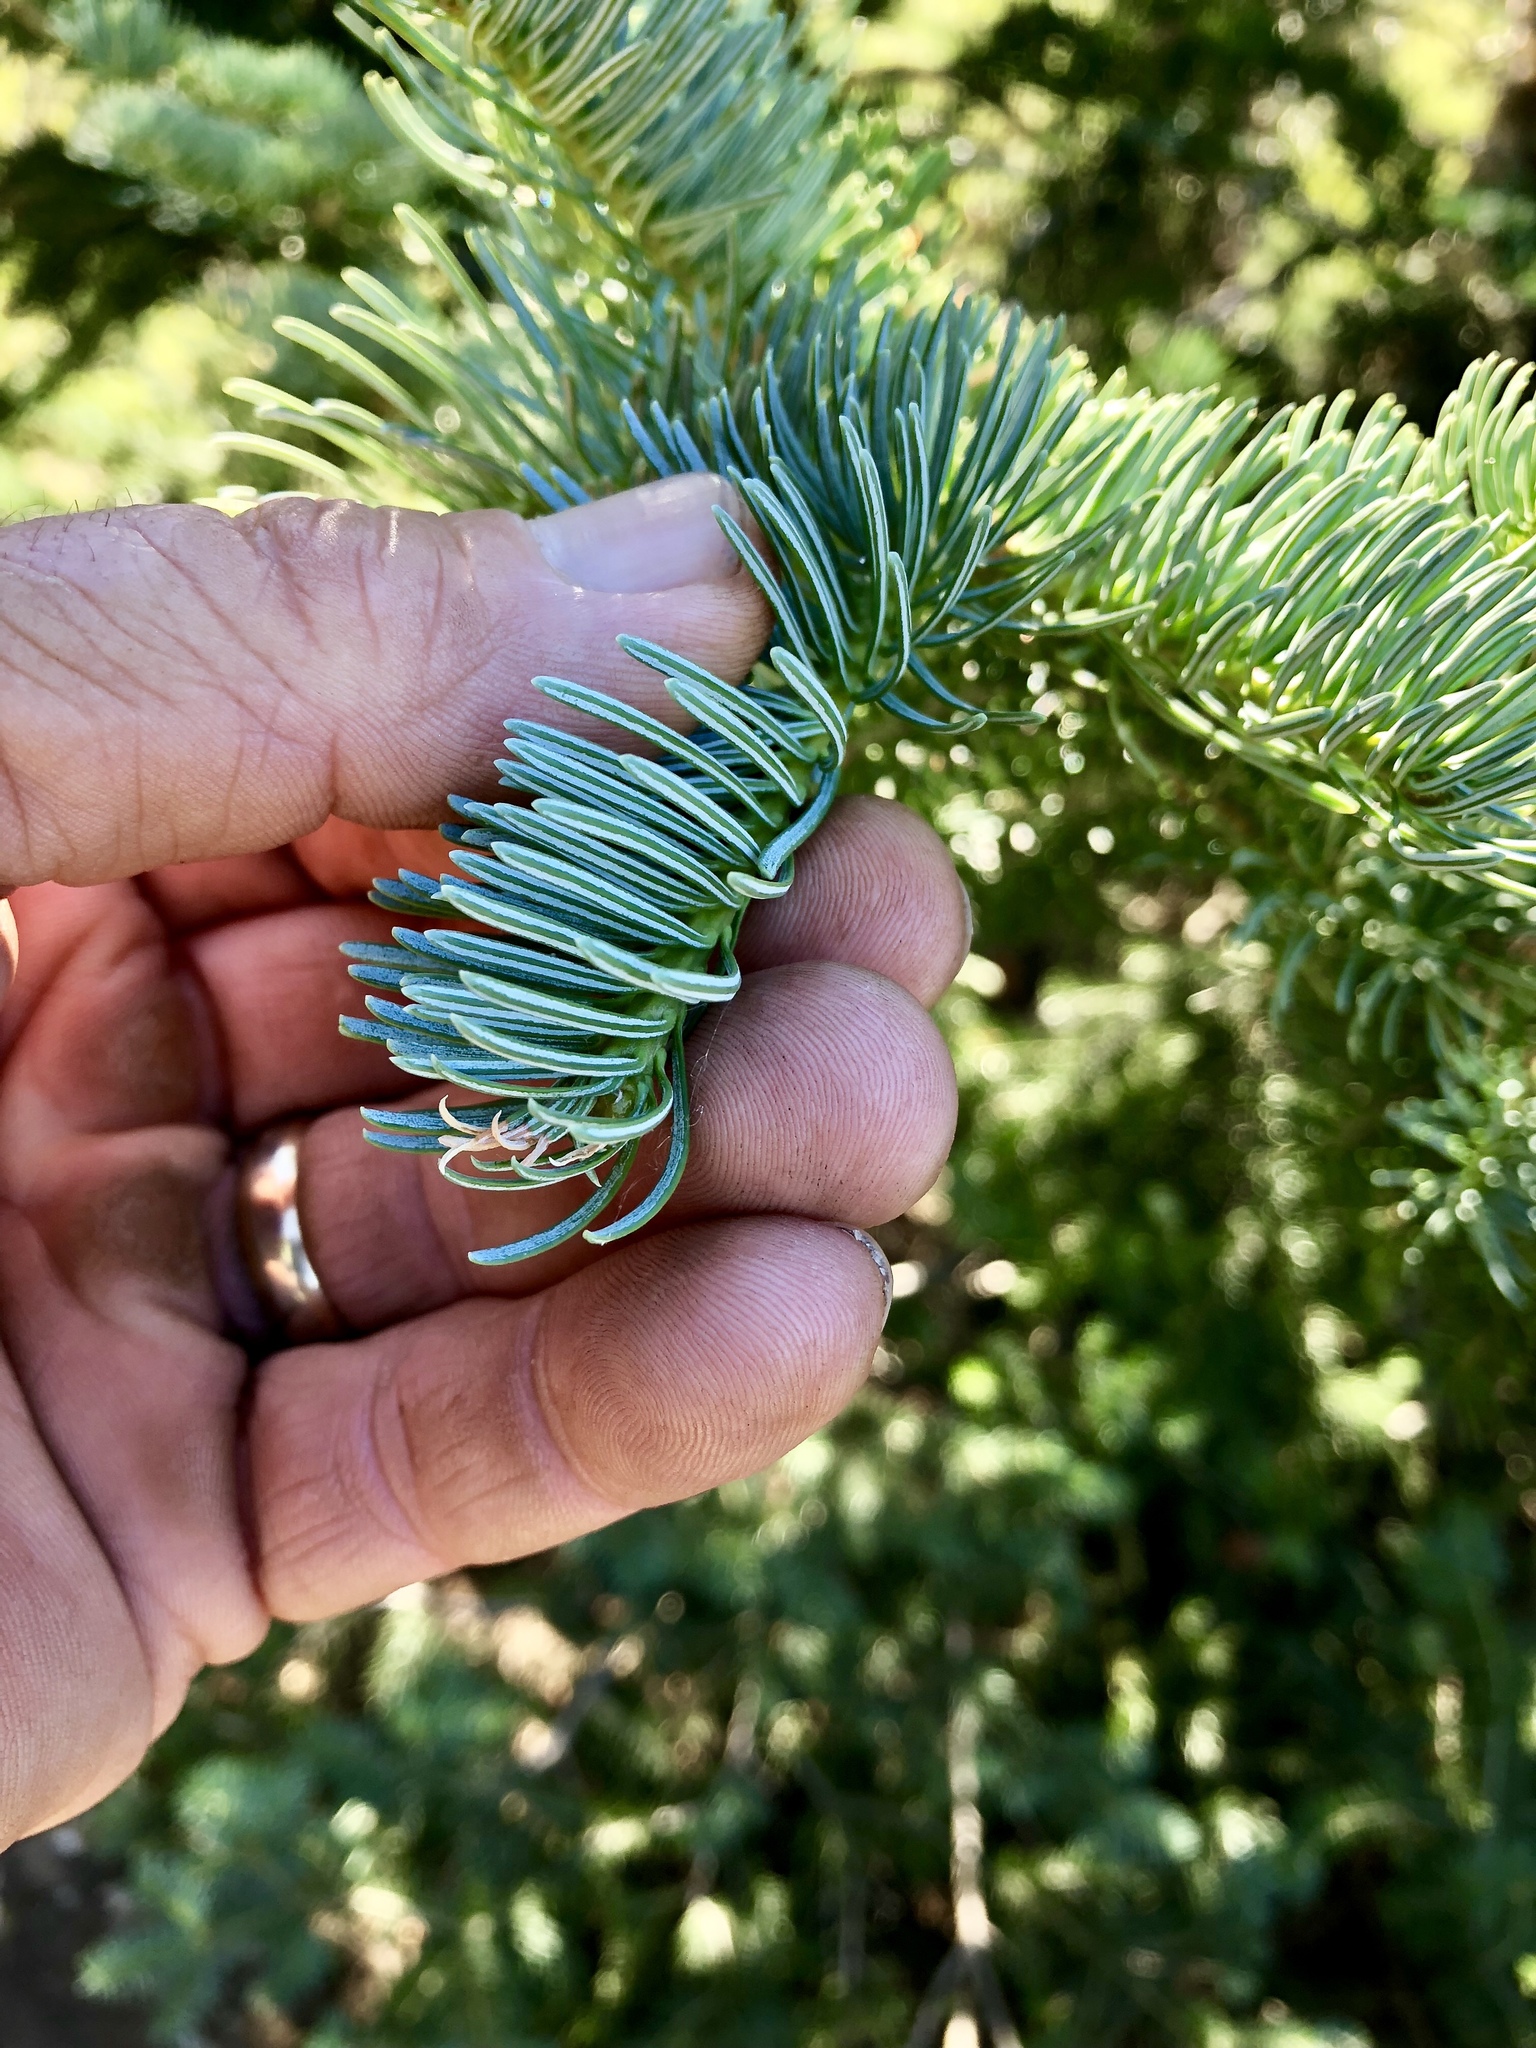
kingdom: Plantae
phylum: Tracheophyta
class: Pinopsida
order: Pinales
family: Pinaceae
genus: Abies
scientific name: Abies lasiocarpa
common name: Subalpine fir
